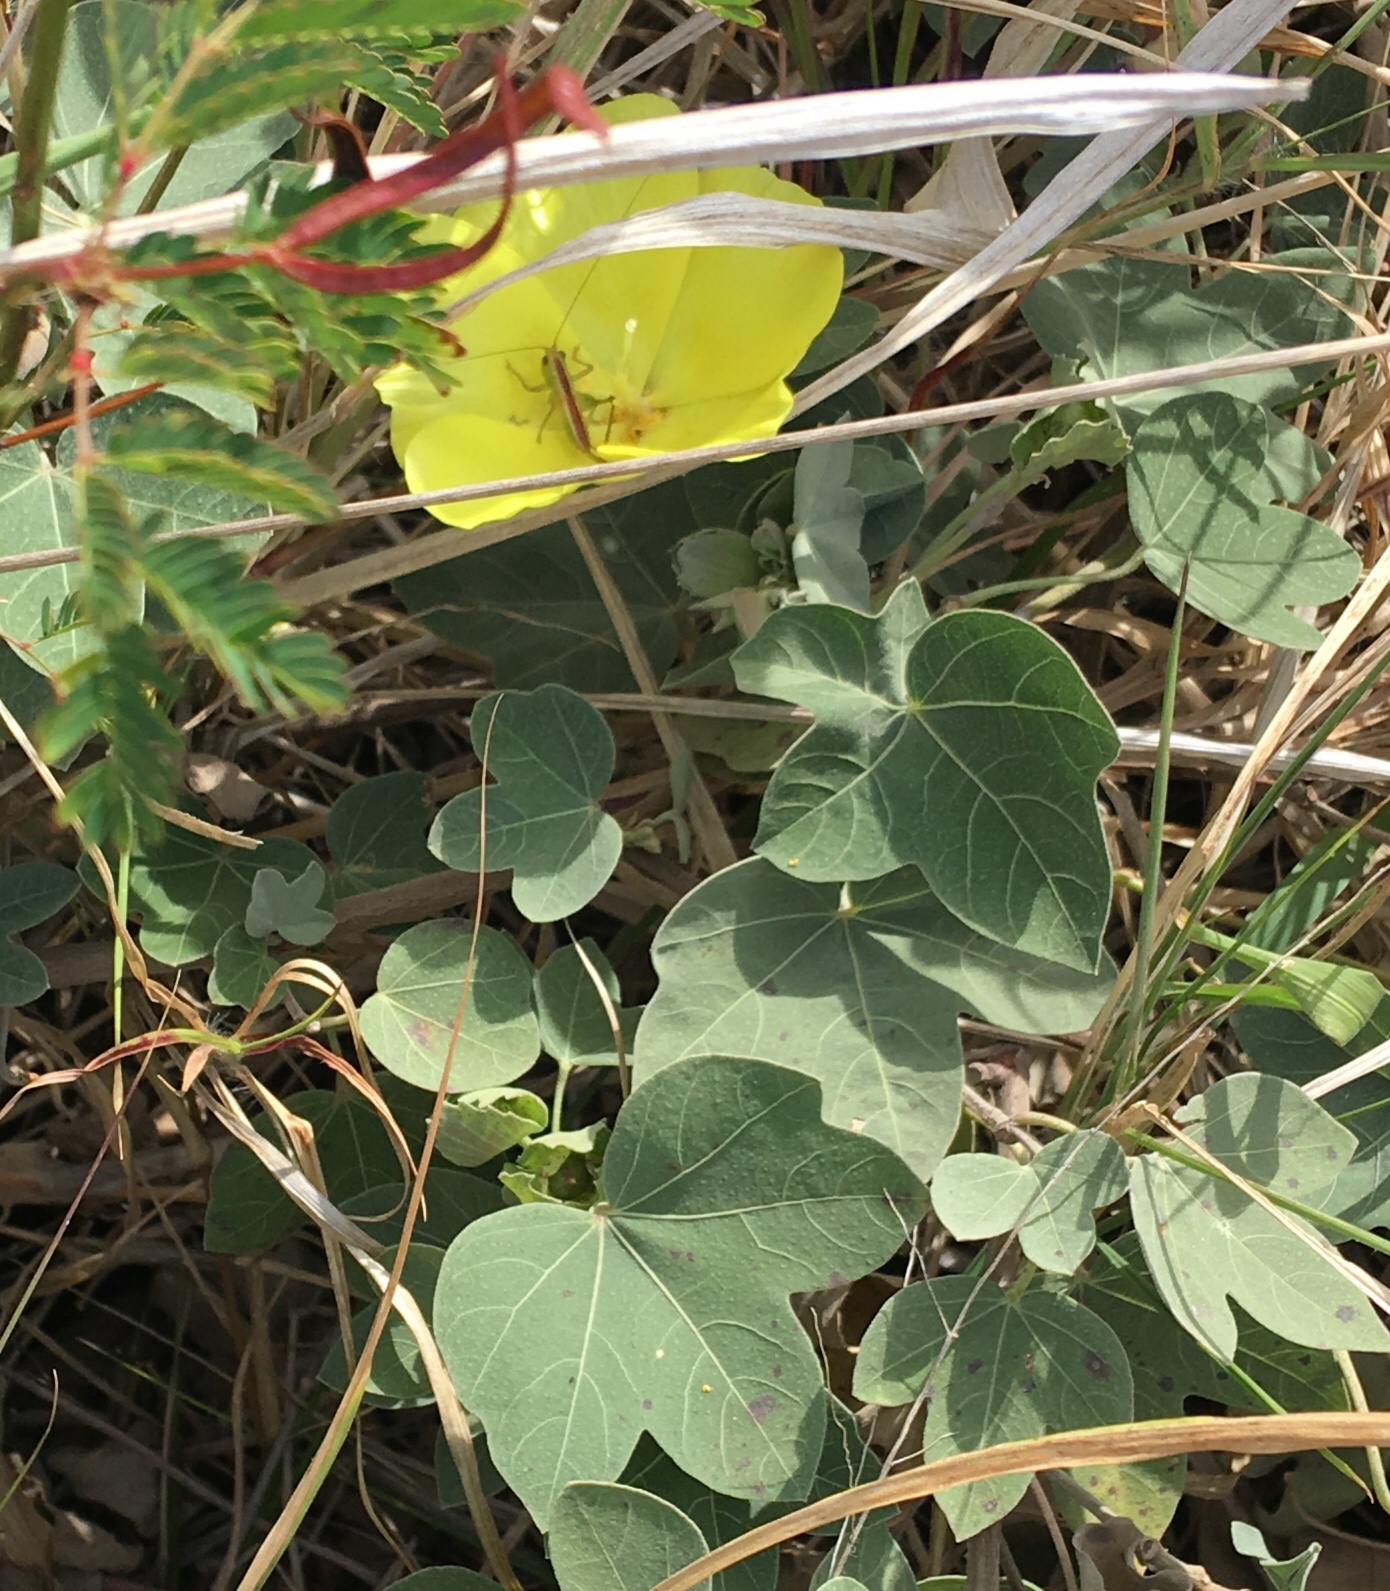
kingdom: Plantae
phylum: Tracheophyta
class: Magnoliopsida
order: Malvales
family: Malvaceae
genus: Gossypium
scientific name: Gossypium tomentosum
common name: Hawaiian cotton
